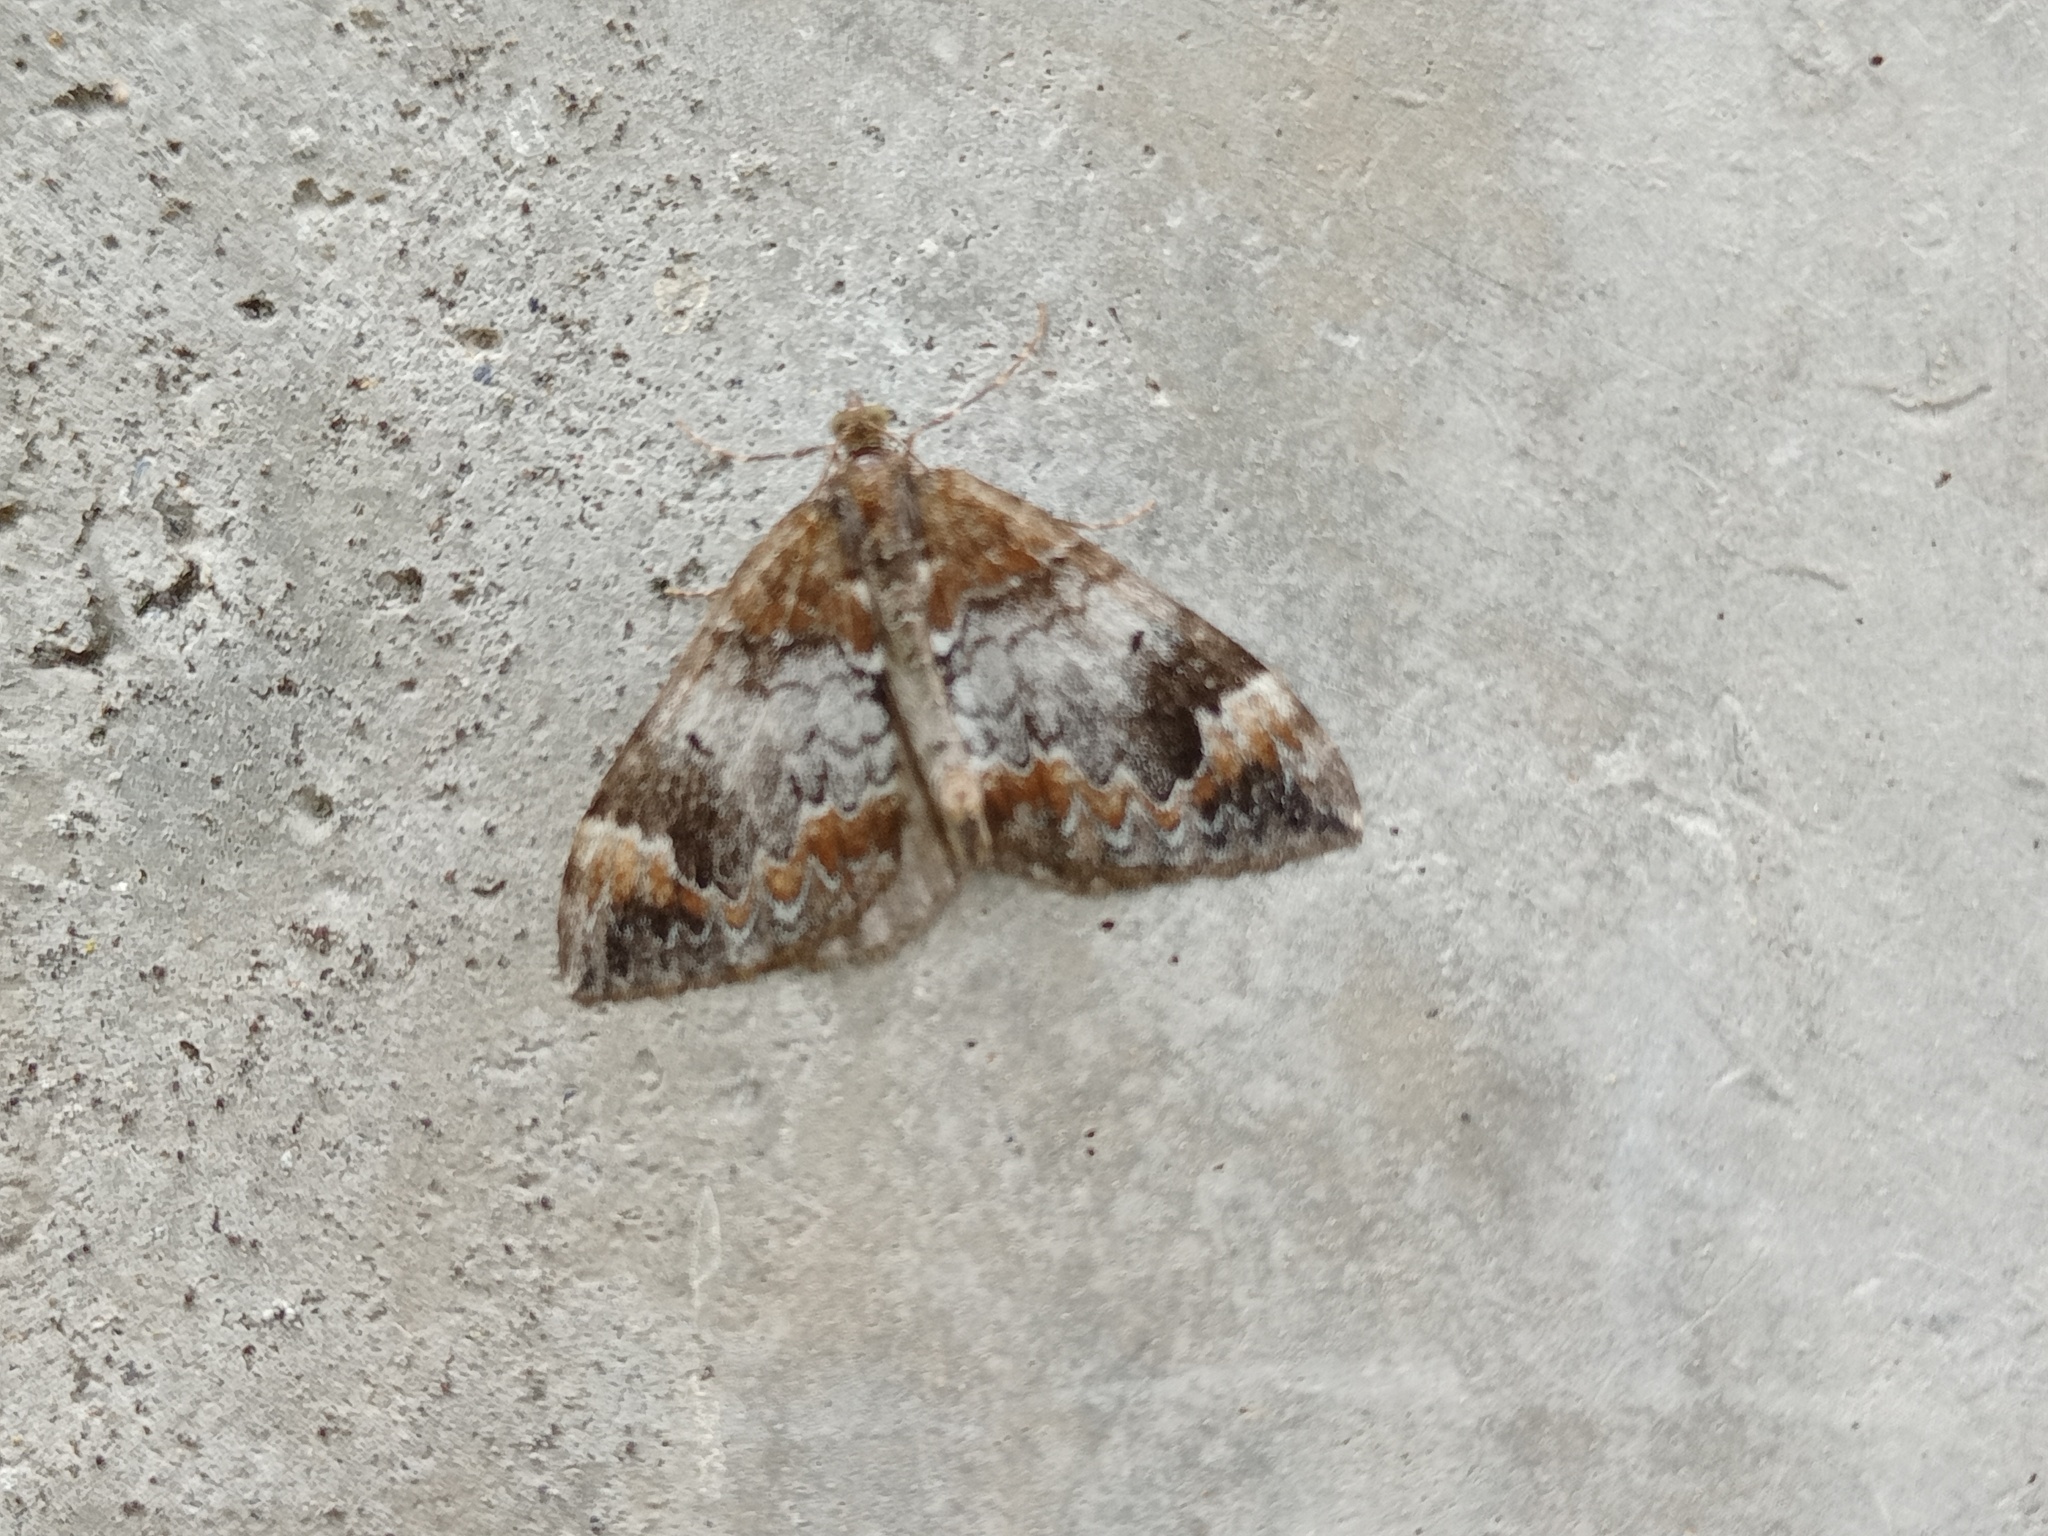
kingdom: Animalia
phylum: Arthropoda
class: Insecta
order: Lepidoptera
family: Geometridae
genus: Dysstroma
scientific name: Dysstroma truncata
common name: Common marbled carpet
